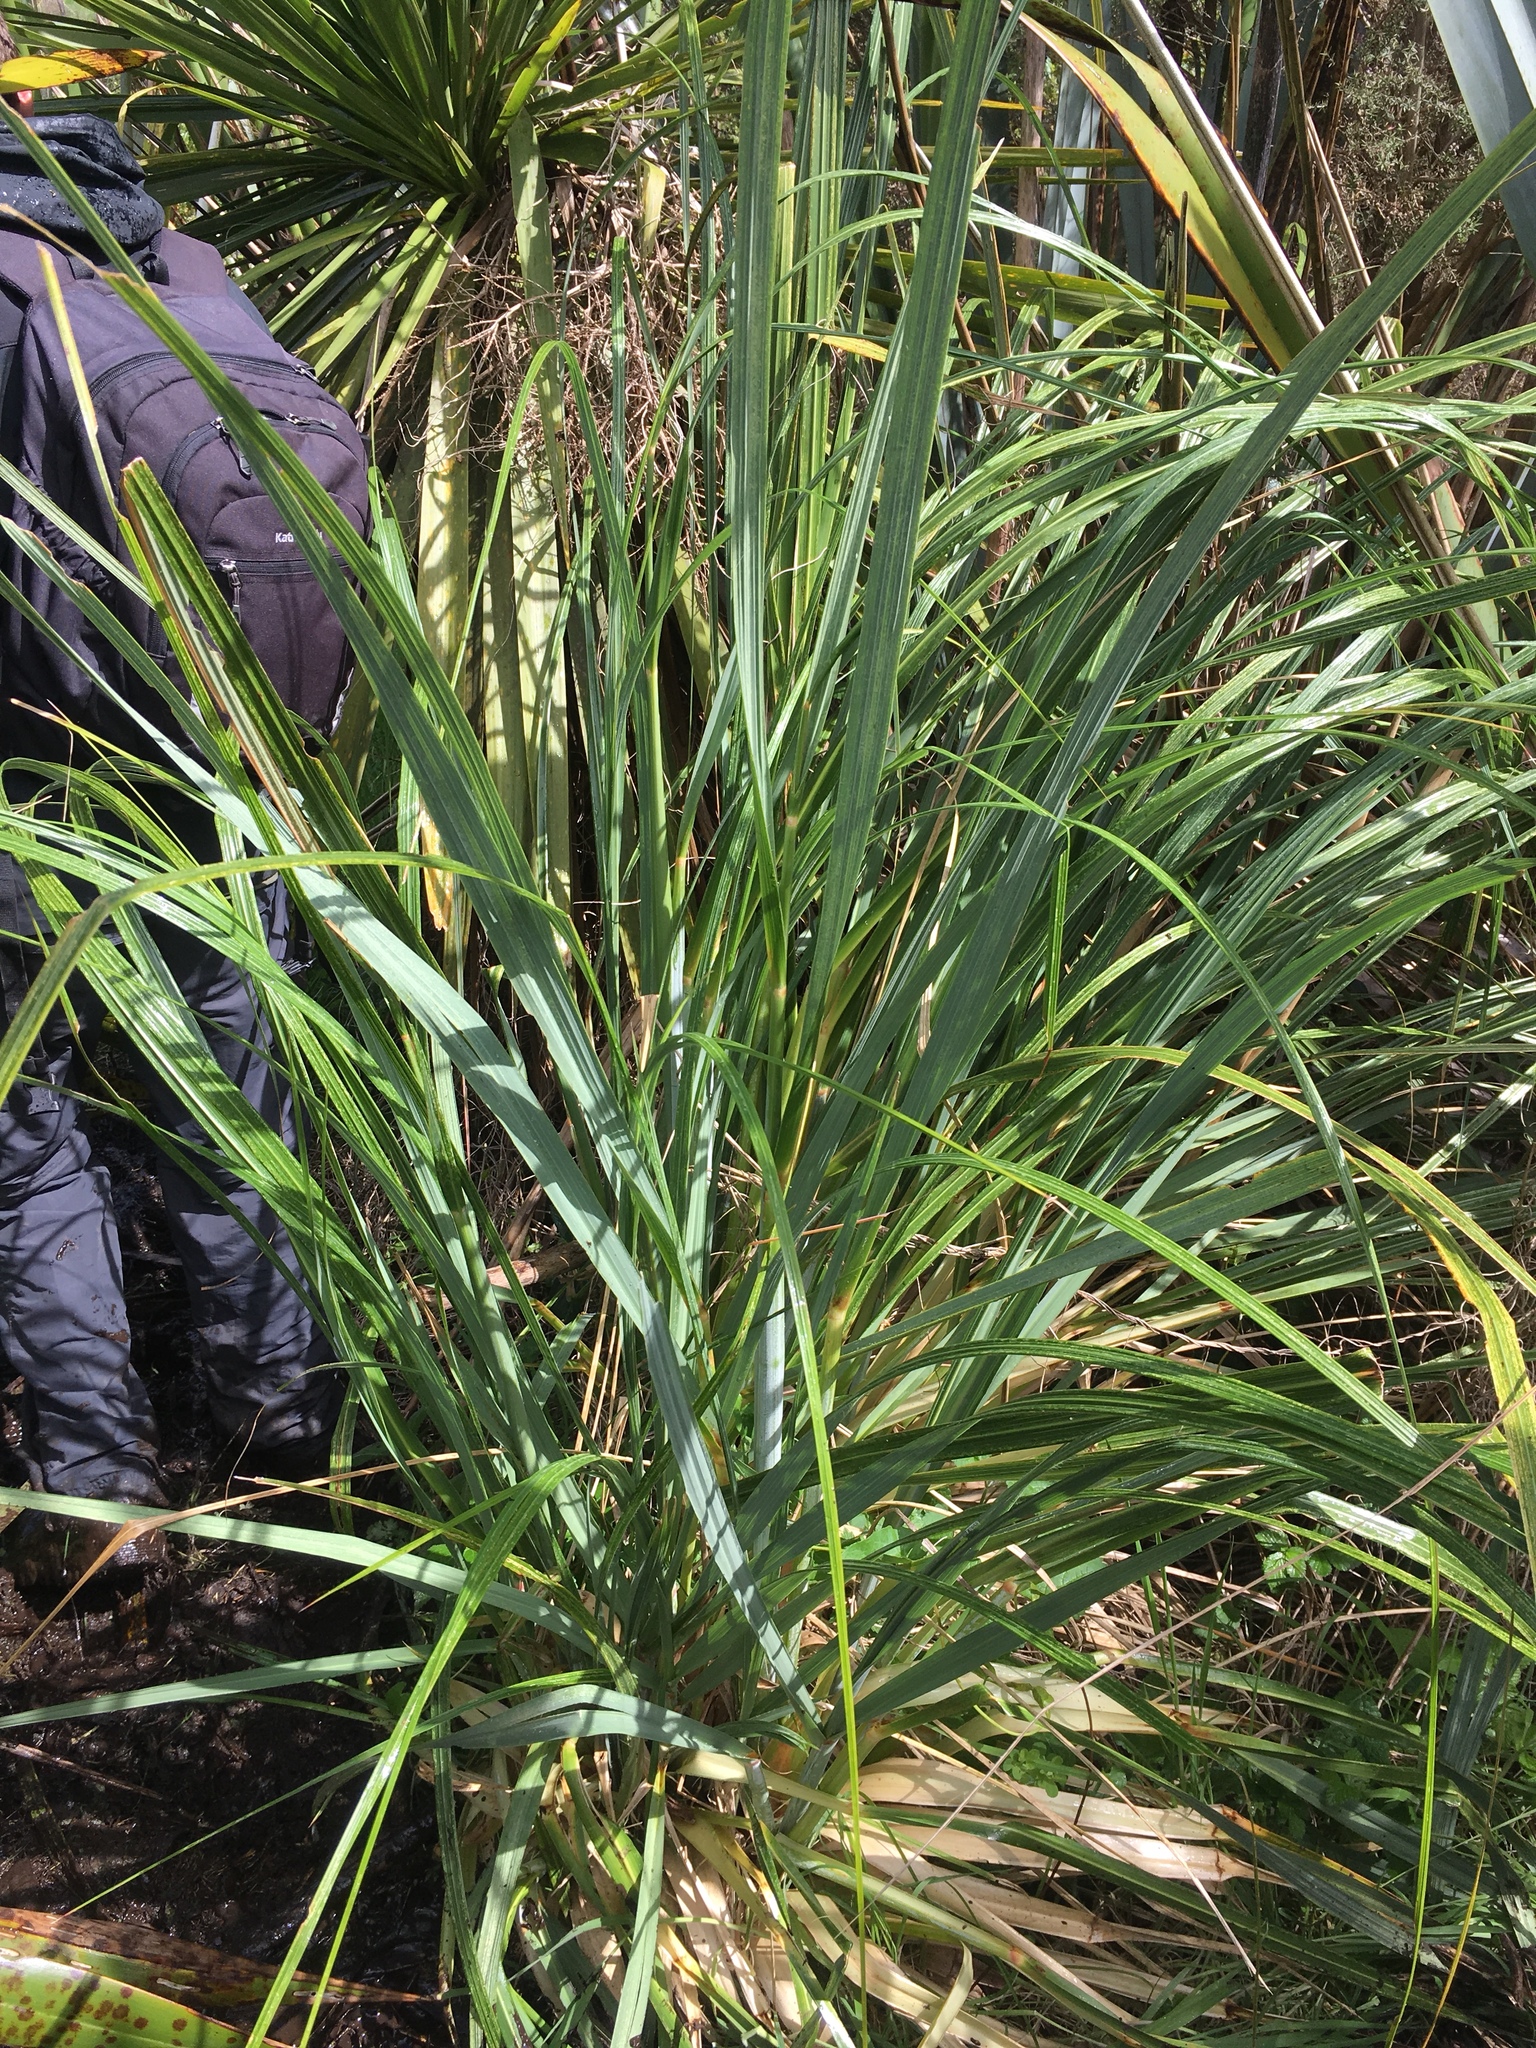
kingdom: Plantae
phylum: Tracheophyta
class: Liliopsida
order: Poales
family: Poaceae
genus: Austroderia
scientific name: Austroderia fulvida
